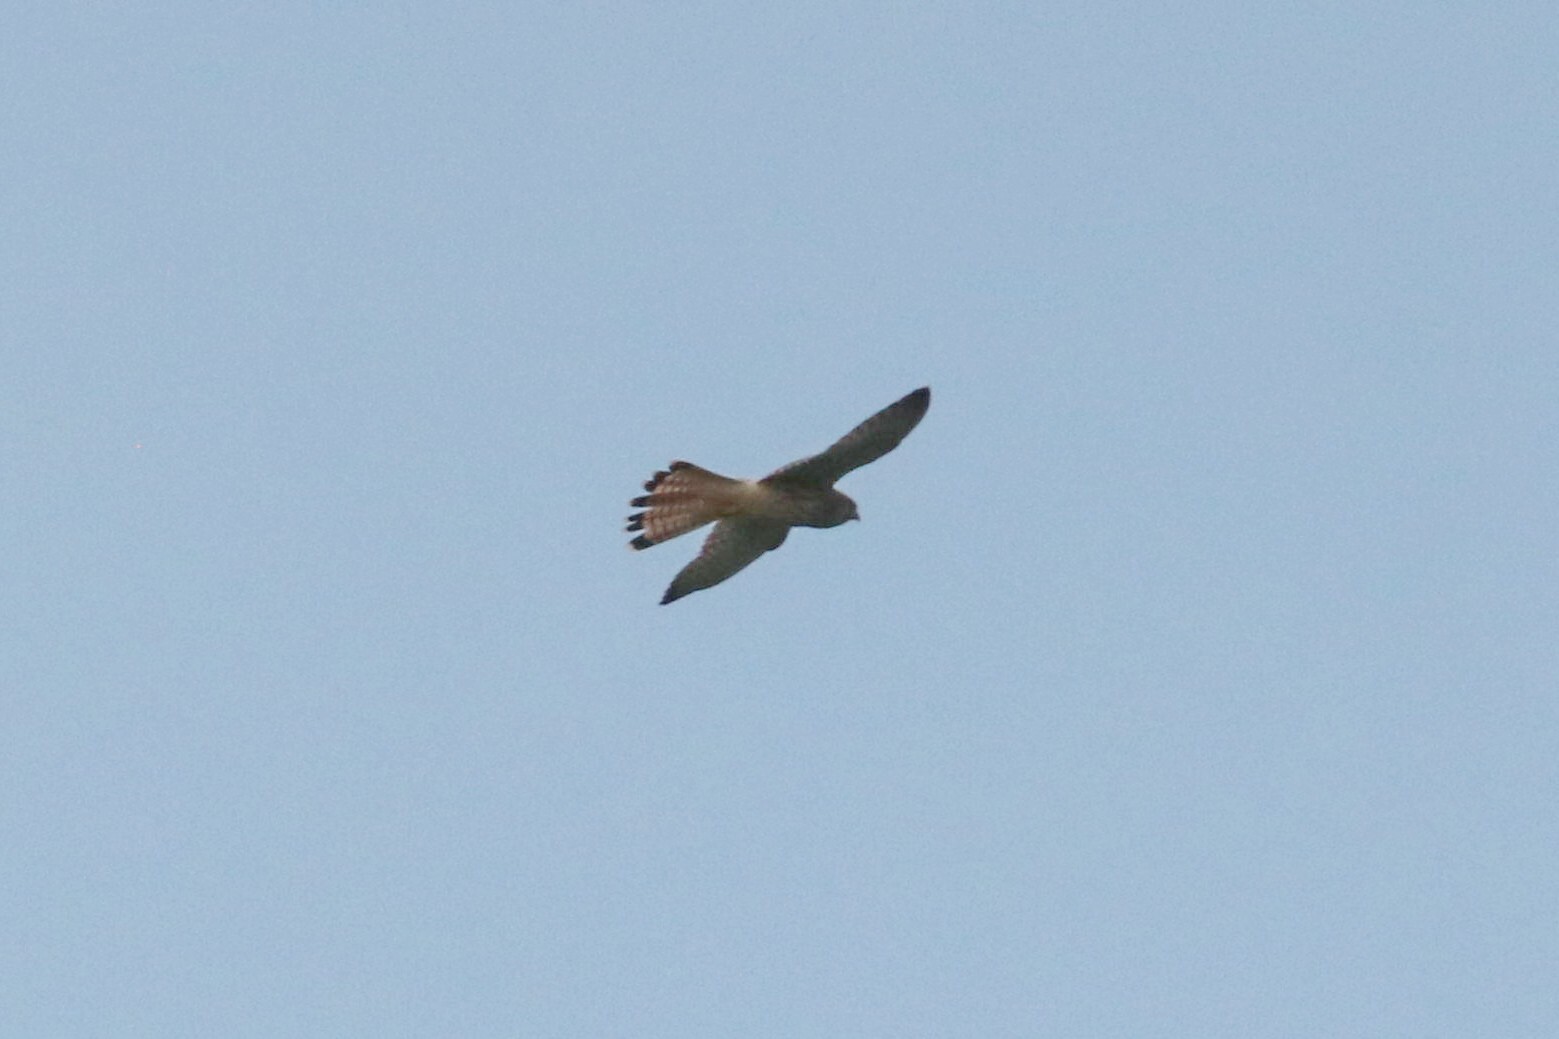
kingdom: Animalia
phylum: Chordata
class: Aves
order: Falconiformes
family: Falconidae
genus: Falco
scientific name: Falco tinnunculus
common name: Common kestrel
